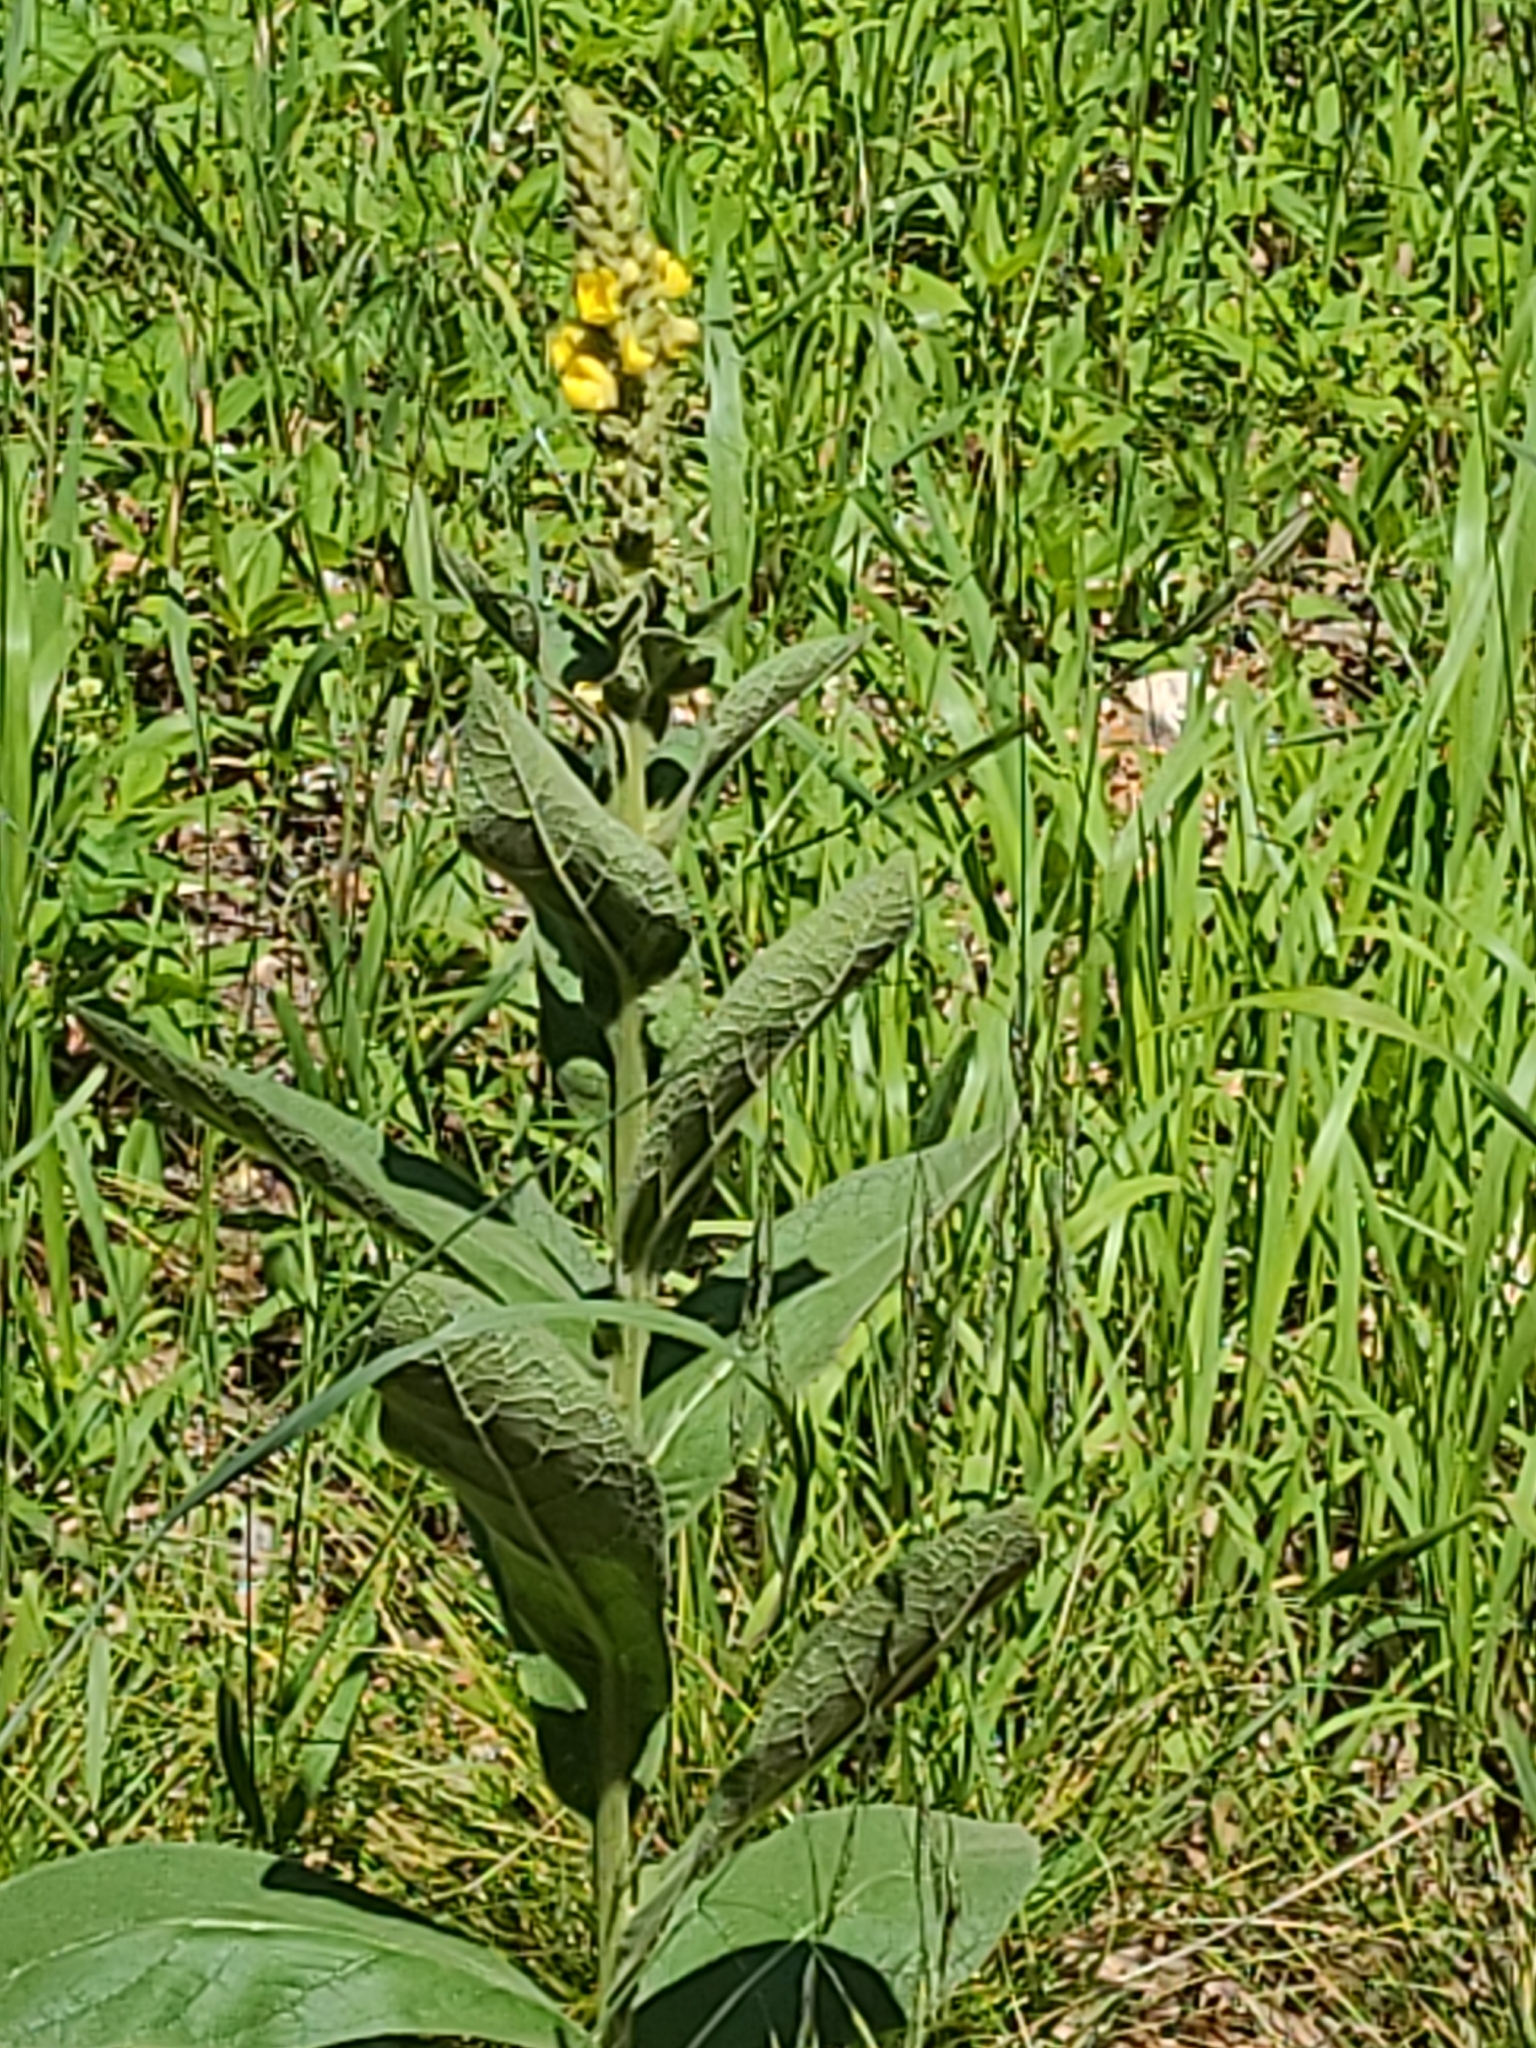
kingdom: Plantae
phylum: Tracheophyta
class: Magnoliopsida
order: Lamiales
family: Scrophulariaceae
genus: Verbascum
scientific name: Verbascum thapsus
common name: Common mullein
